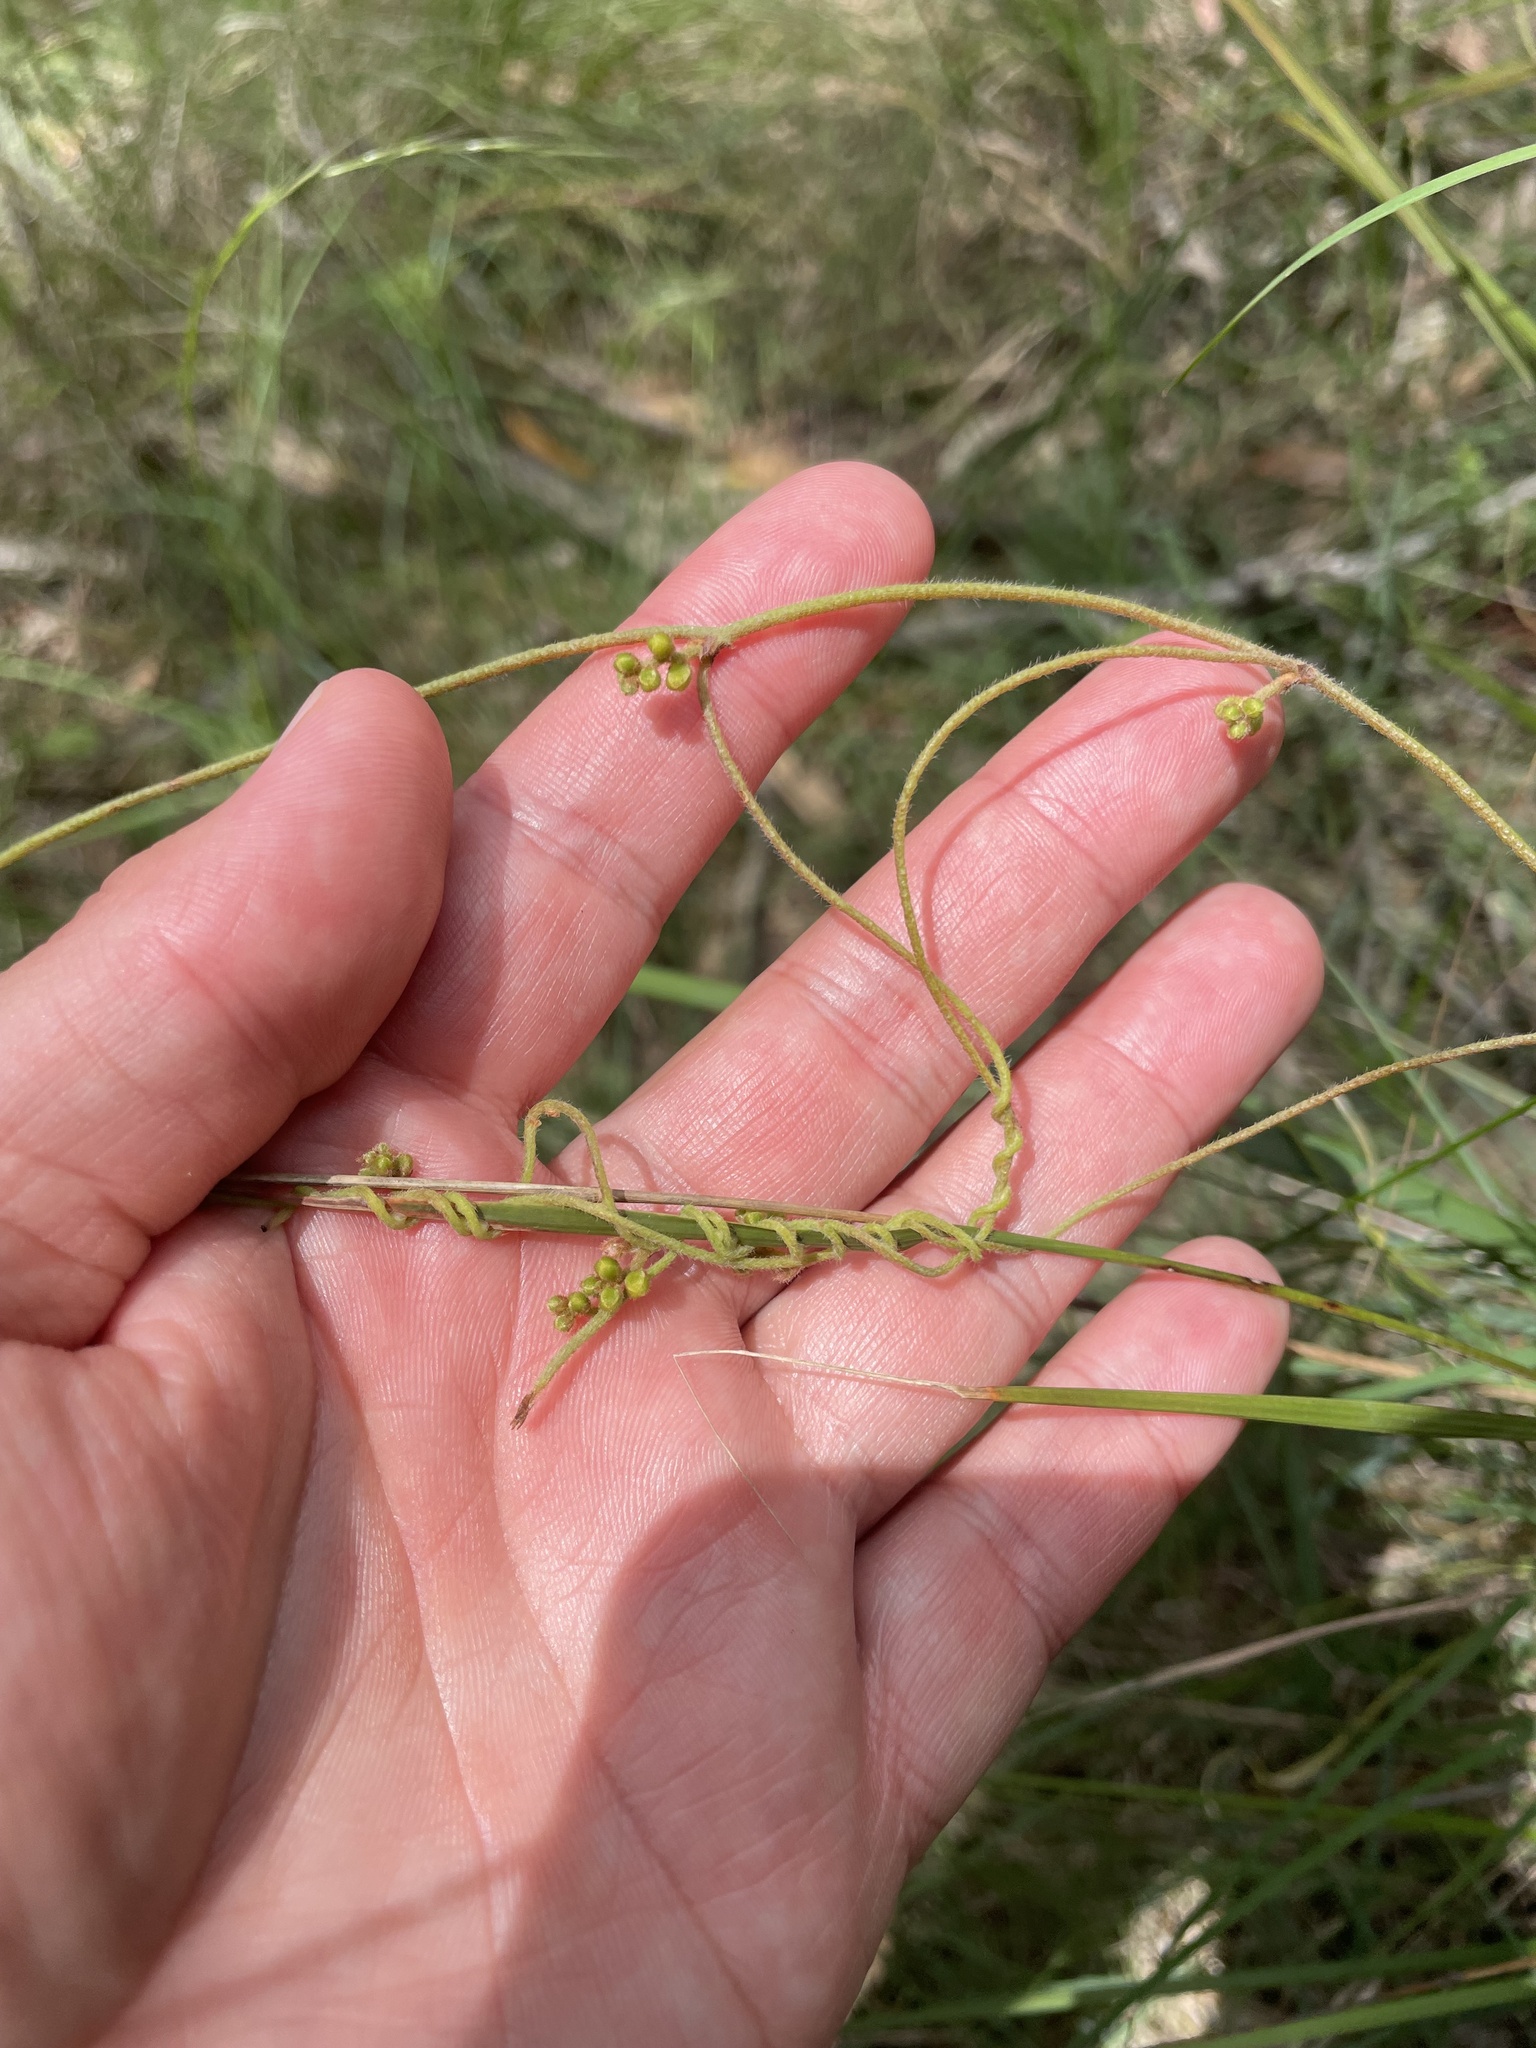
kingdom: Plantae
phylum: Tracheophyta
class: Magnoliopsida
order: Laurales
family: Lauraceae
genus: Cassytha
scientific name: Cassytha pubescens
